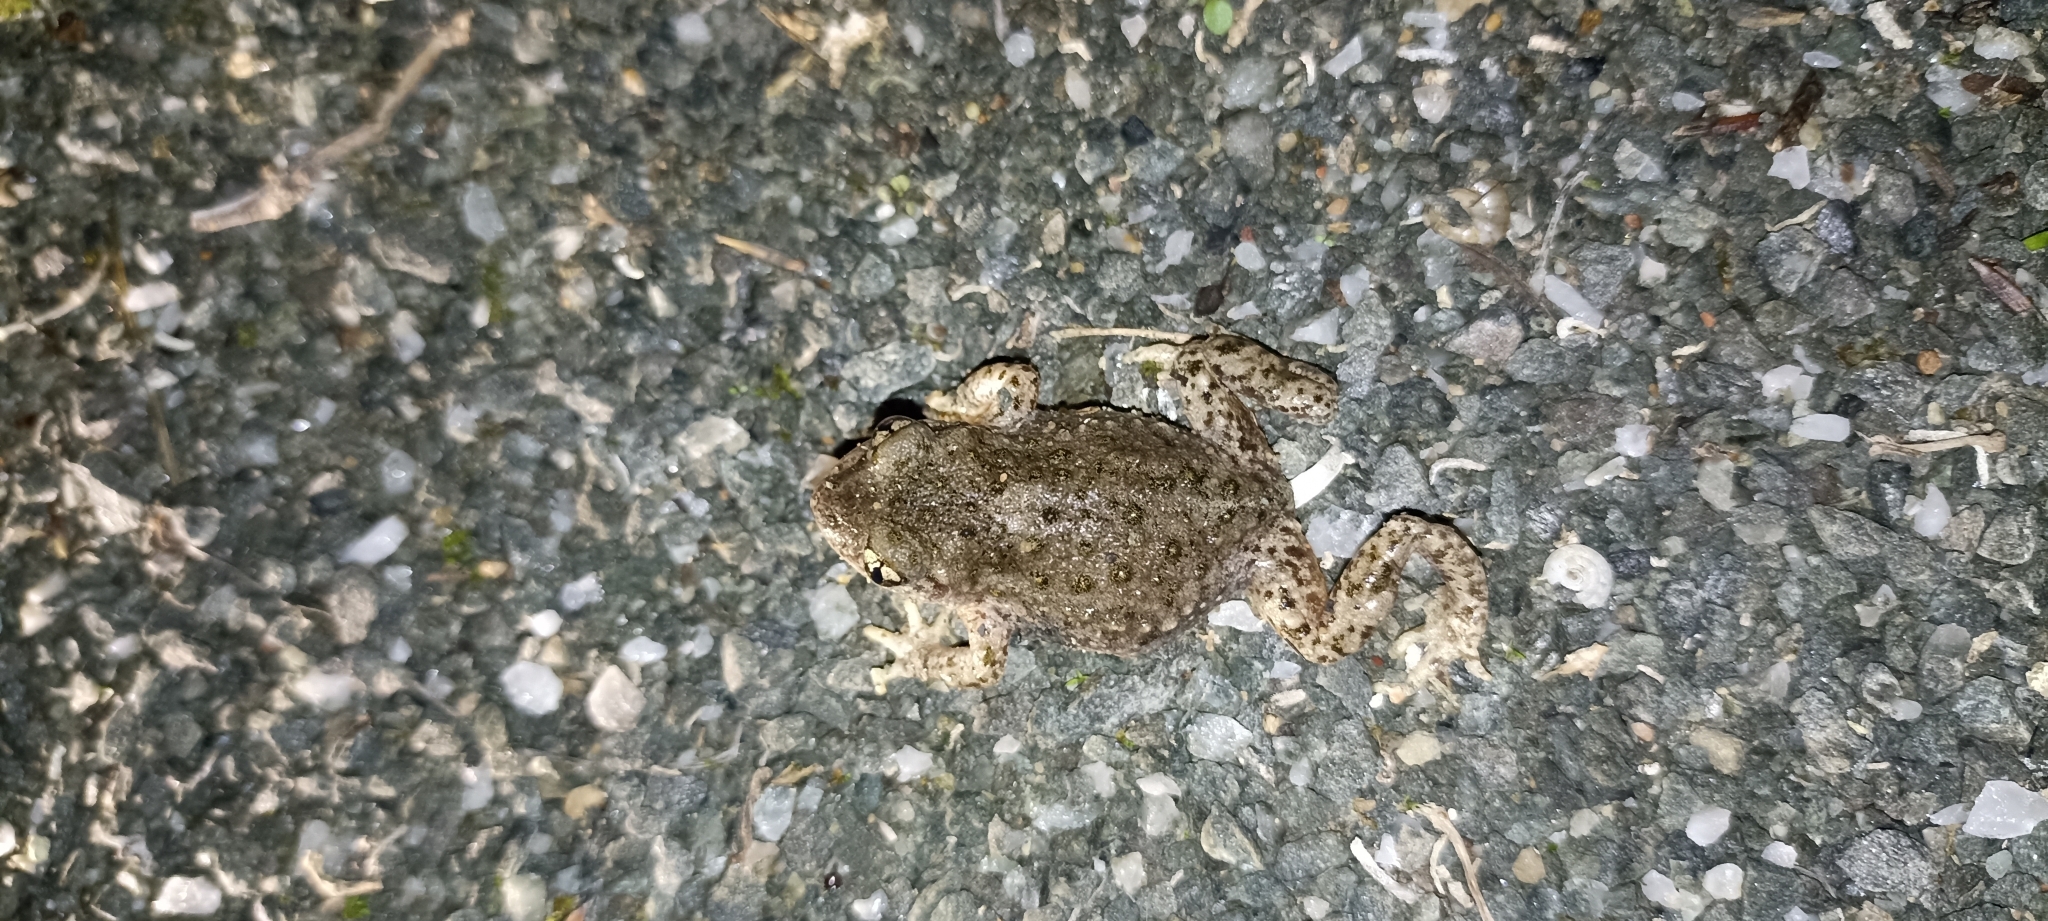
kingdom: Animalia
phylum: Chordata
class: Amphibia
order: Anura
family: Alytidae
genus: Alytes
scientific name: Alytes obstetricans
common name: Midwife toad
